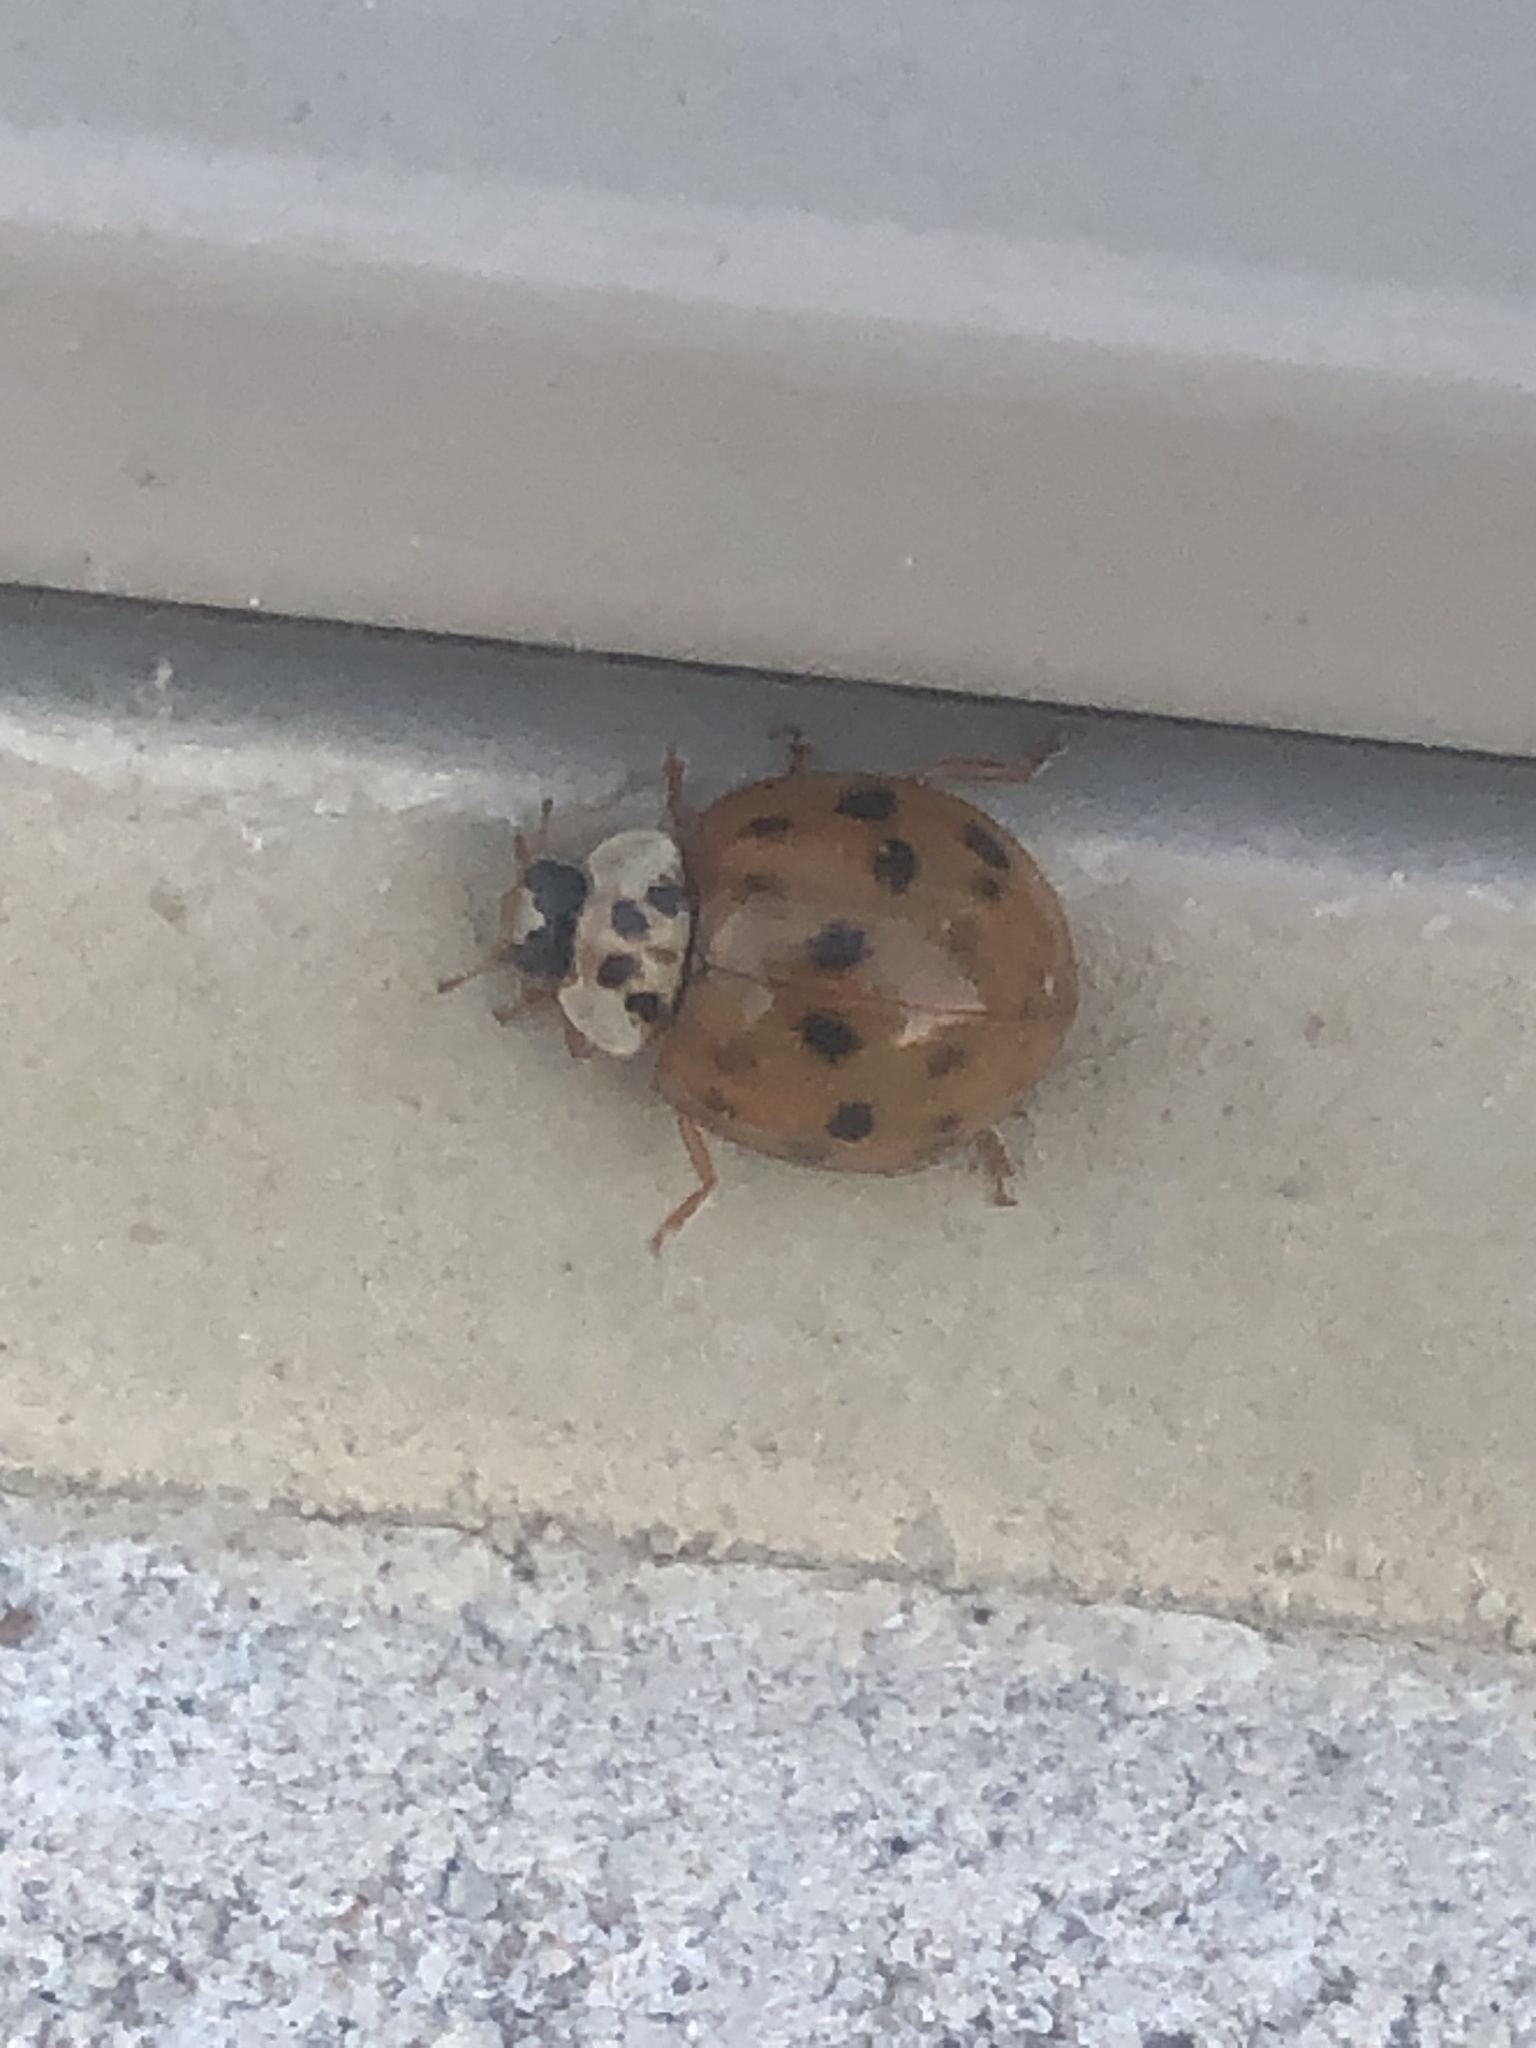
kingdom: Animalia
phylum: Arthropoda
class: Insecta
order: Coleoptera
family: Coccinellidae
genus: Harmonia
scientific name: Harmonia axyridis
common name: Harlequin ladybird
